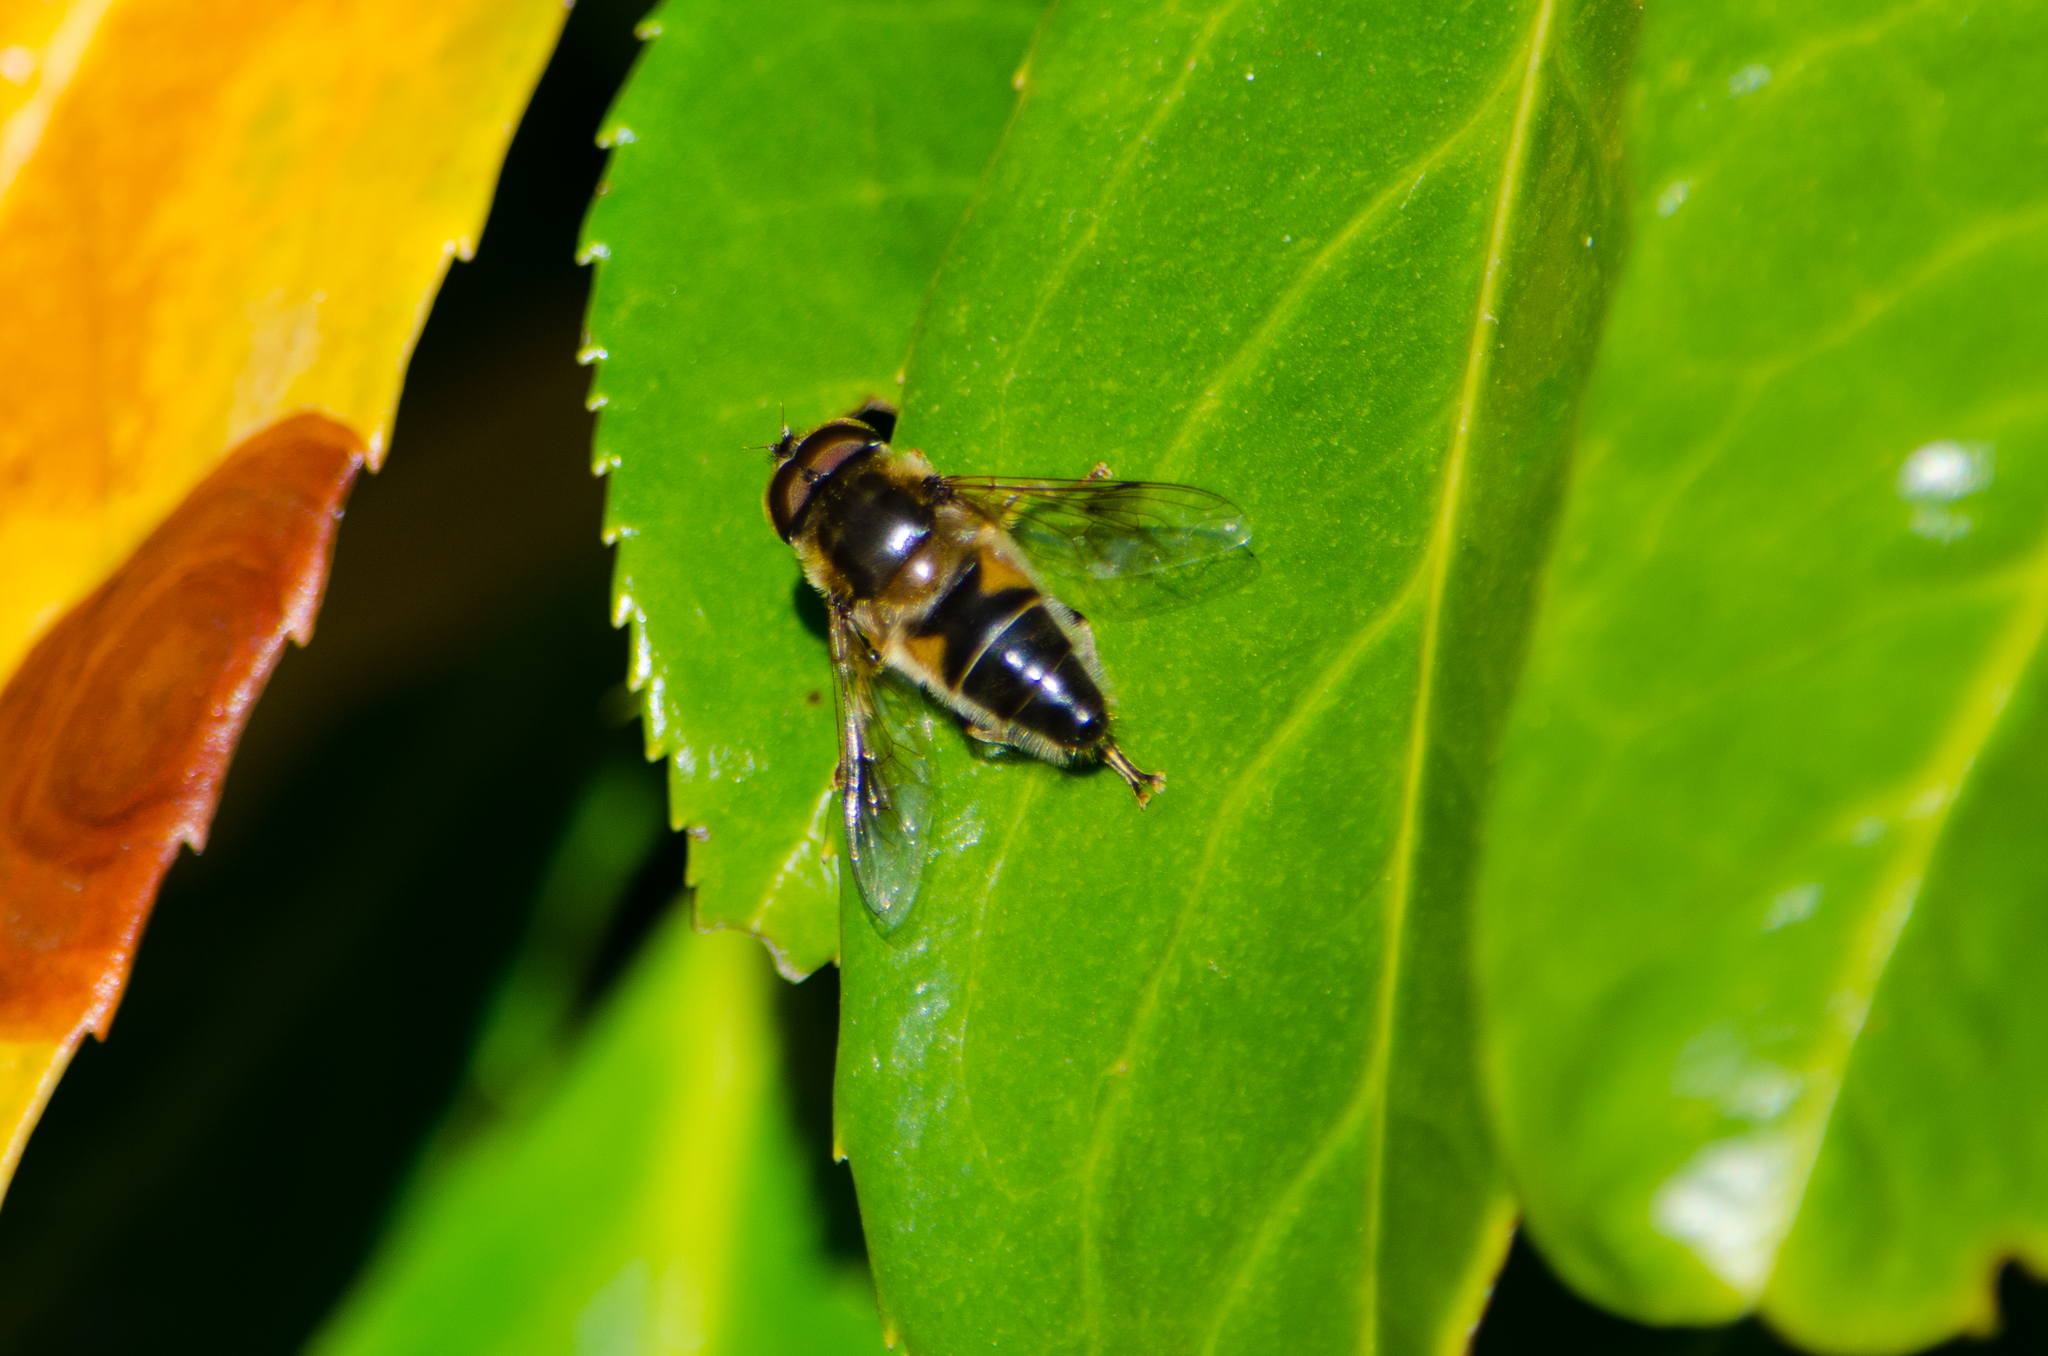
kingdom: Animalia
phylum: Arthropoda
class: Insecta
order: Diptera
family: Syrphidae
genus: Eristalis
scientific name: Eristalis pertinax
